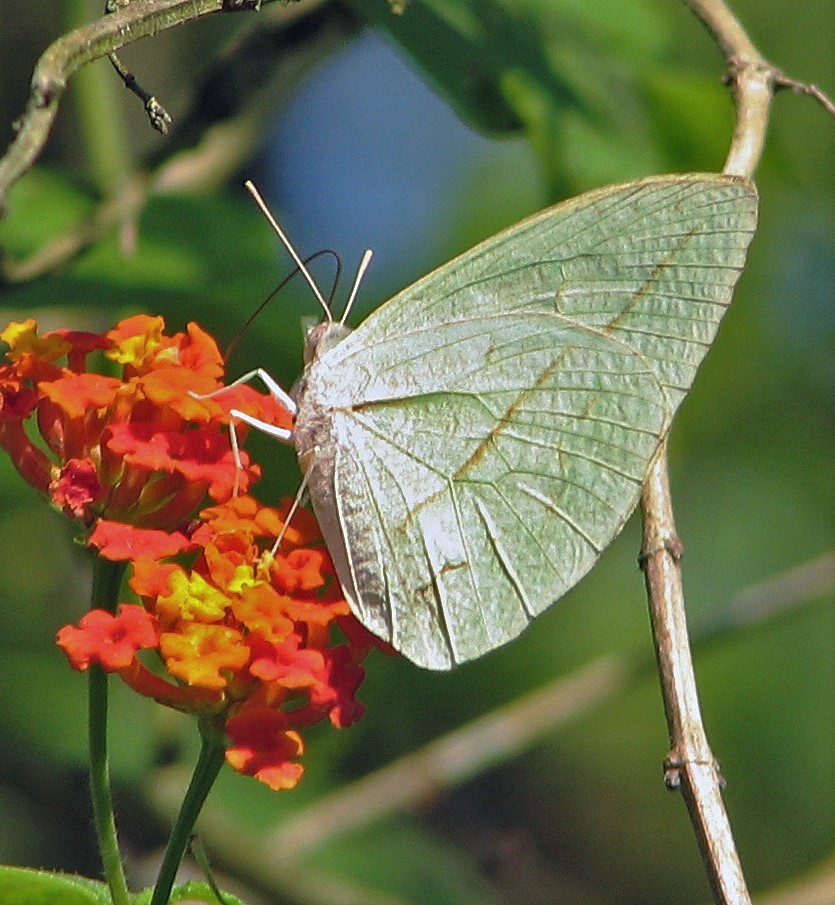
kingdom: Animalia
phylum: Arthropoda
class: Insecta
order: Lepidoptera
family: Pieridae
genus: Rhabdodryas
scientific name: Rhabdodryas trite
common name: Straight-lined sulphur
